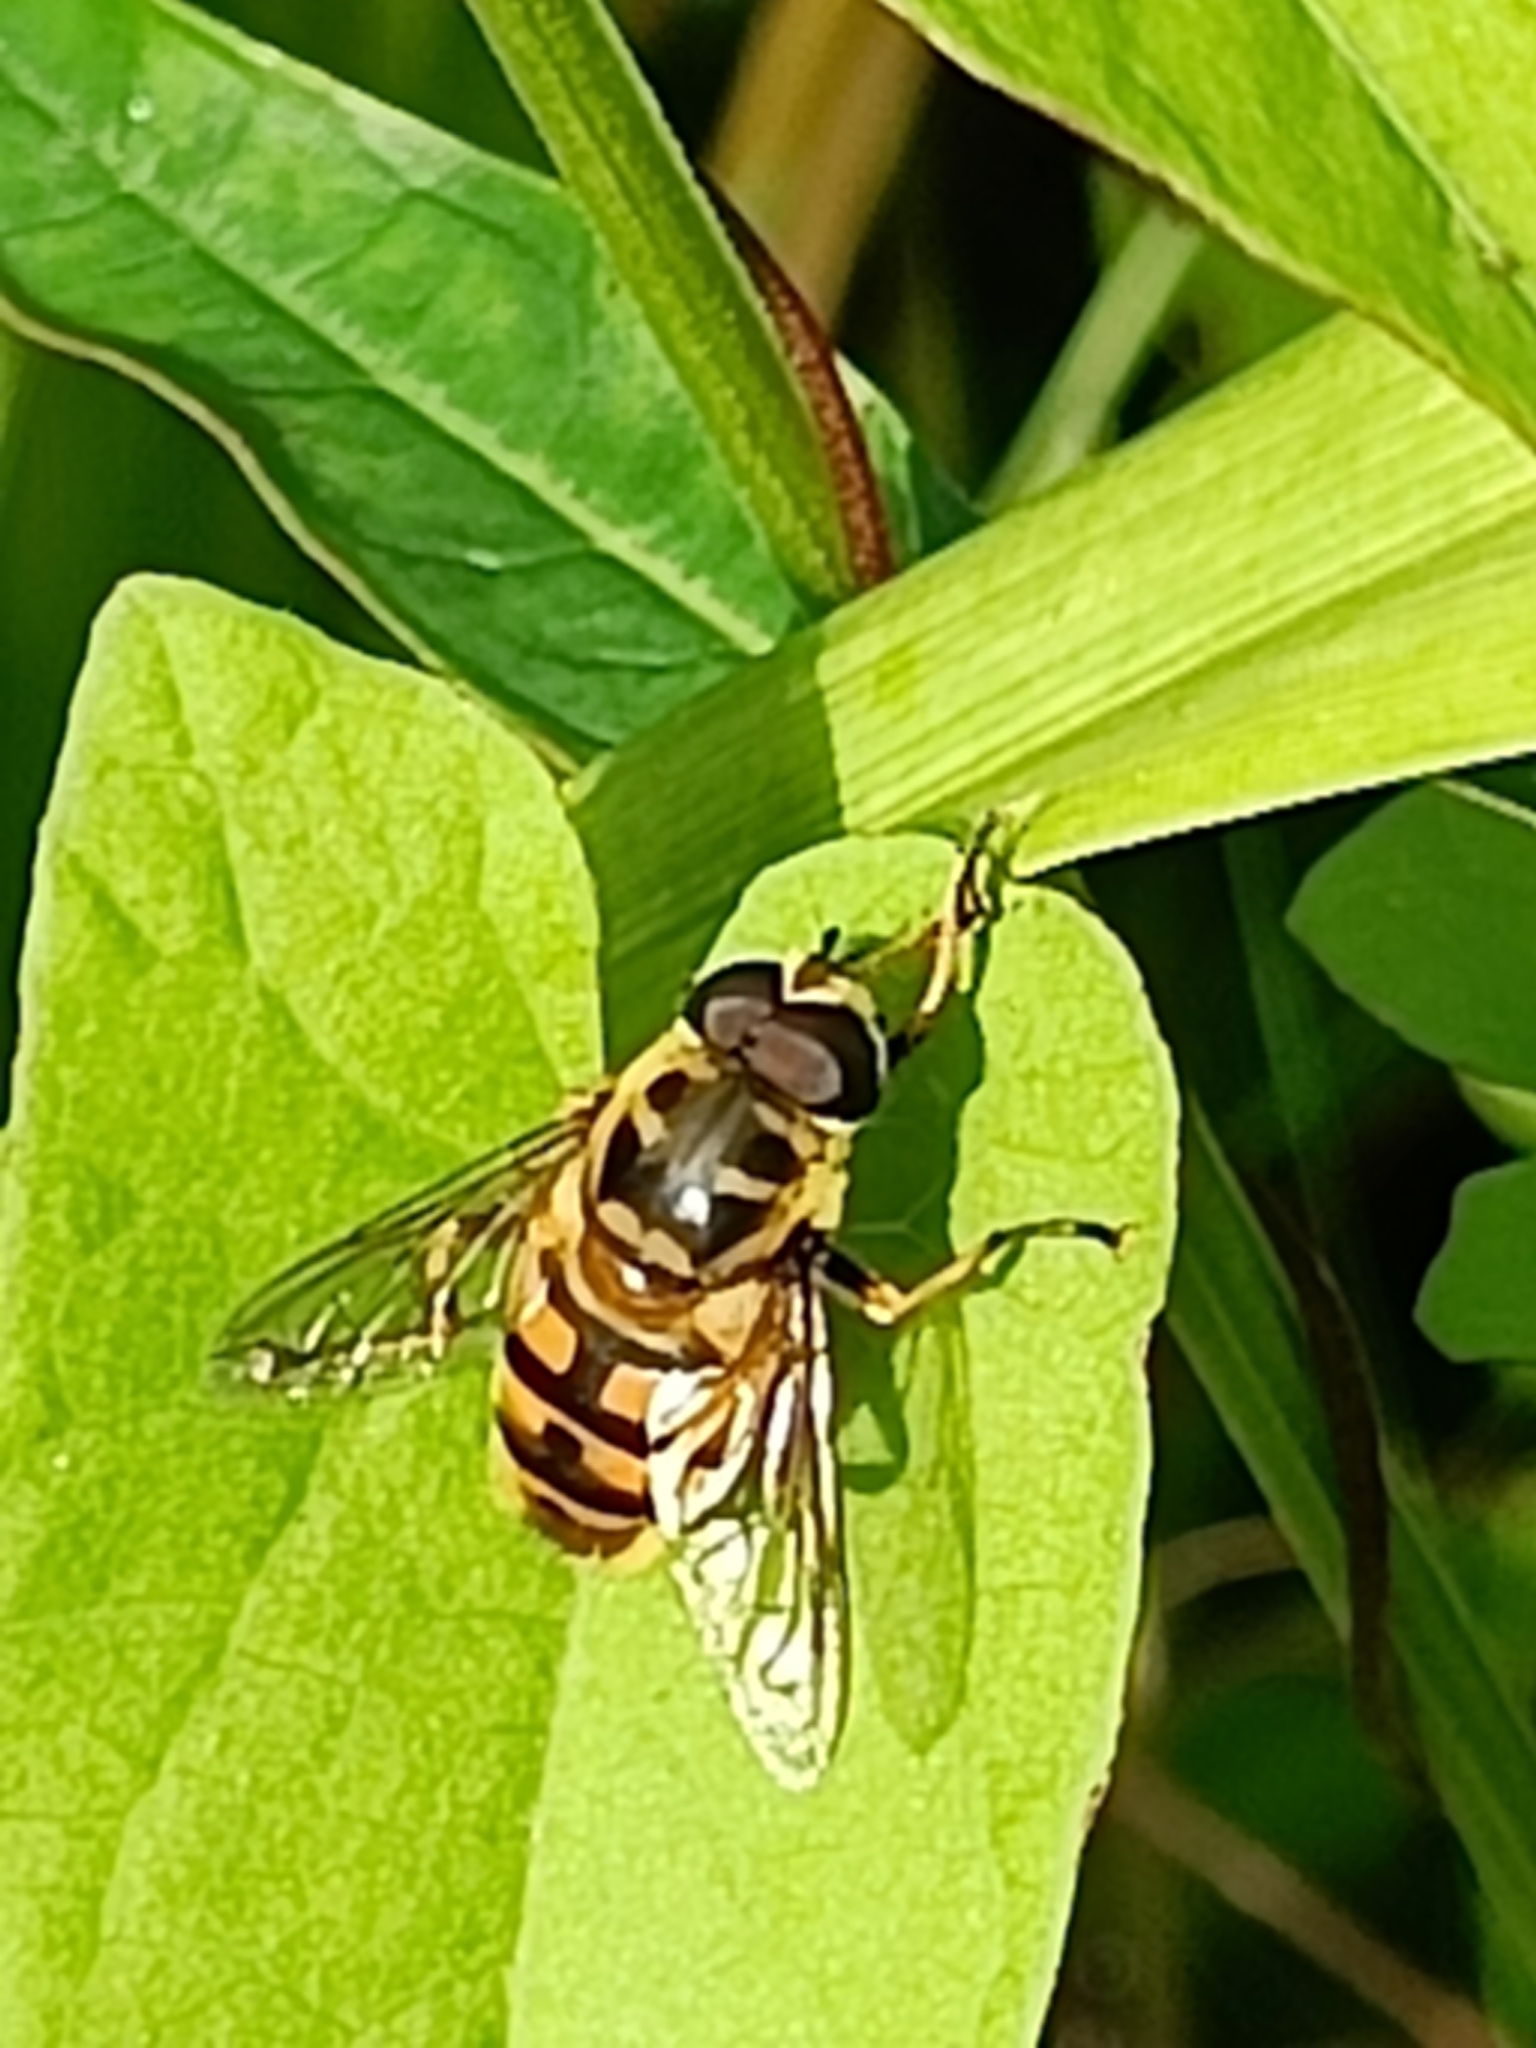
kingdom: Animalia
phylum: Arthropoda
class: Insecta
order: Diptera
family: Syrphidae
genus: Myathropa
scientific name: Myathropa florea
